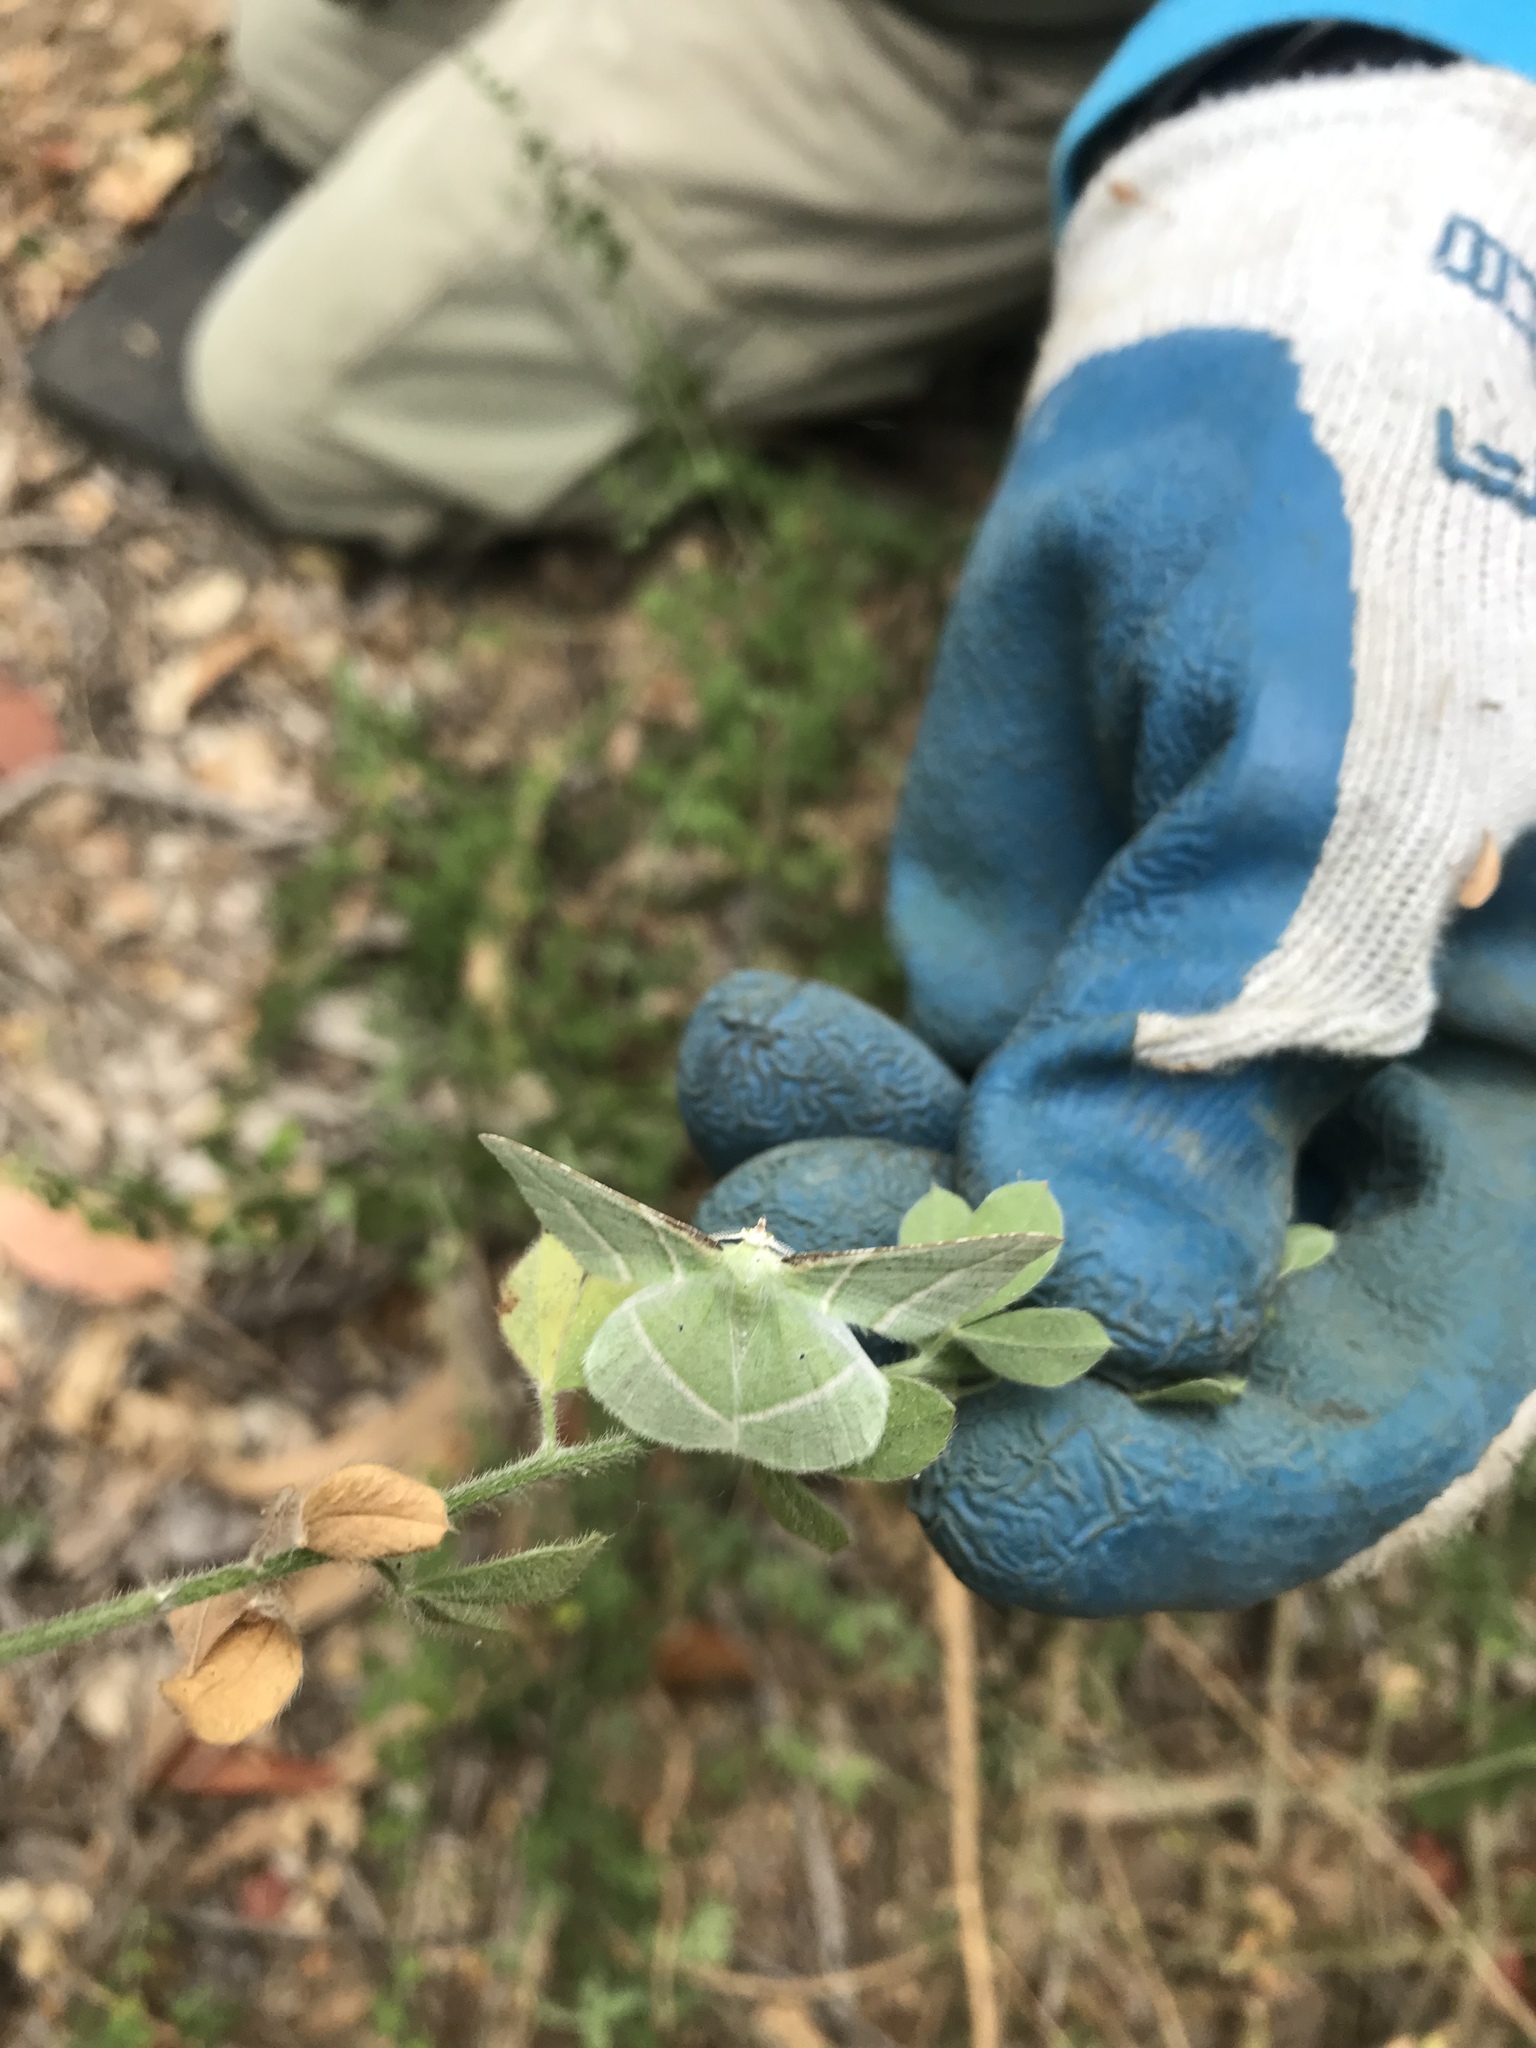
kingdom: Animalia
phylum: Arthropoda
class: Insecta
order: Lepidoptera
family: Geometridae
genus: Dichorda
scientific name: Dichorda illustraria
